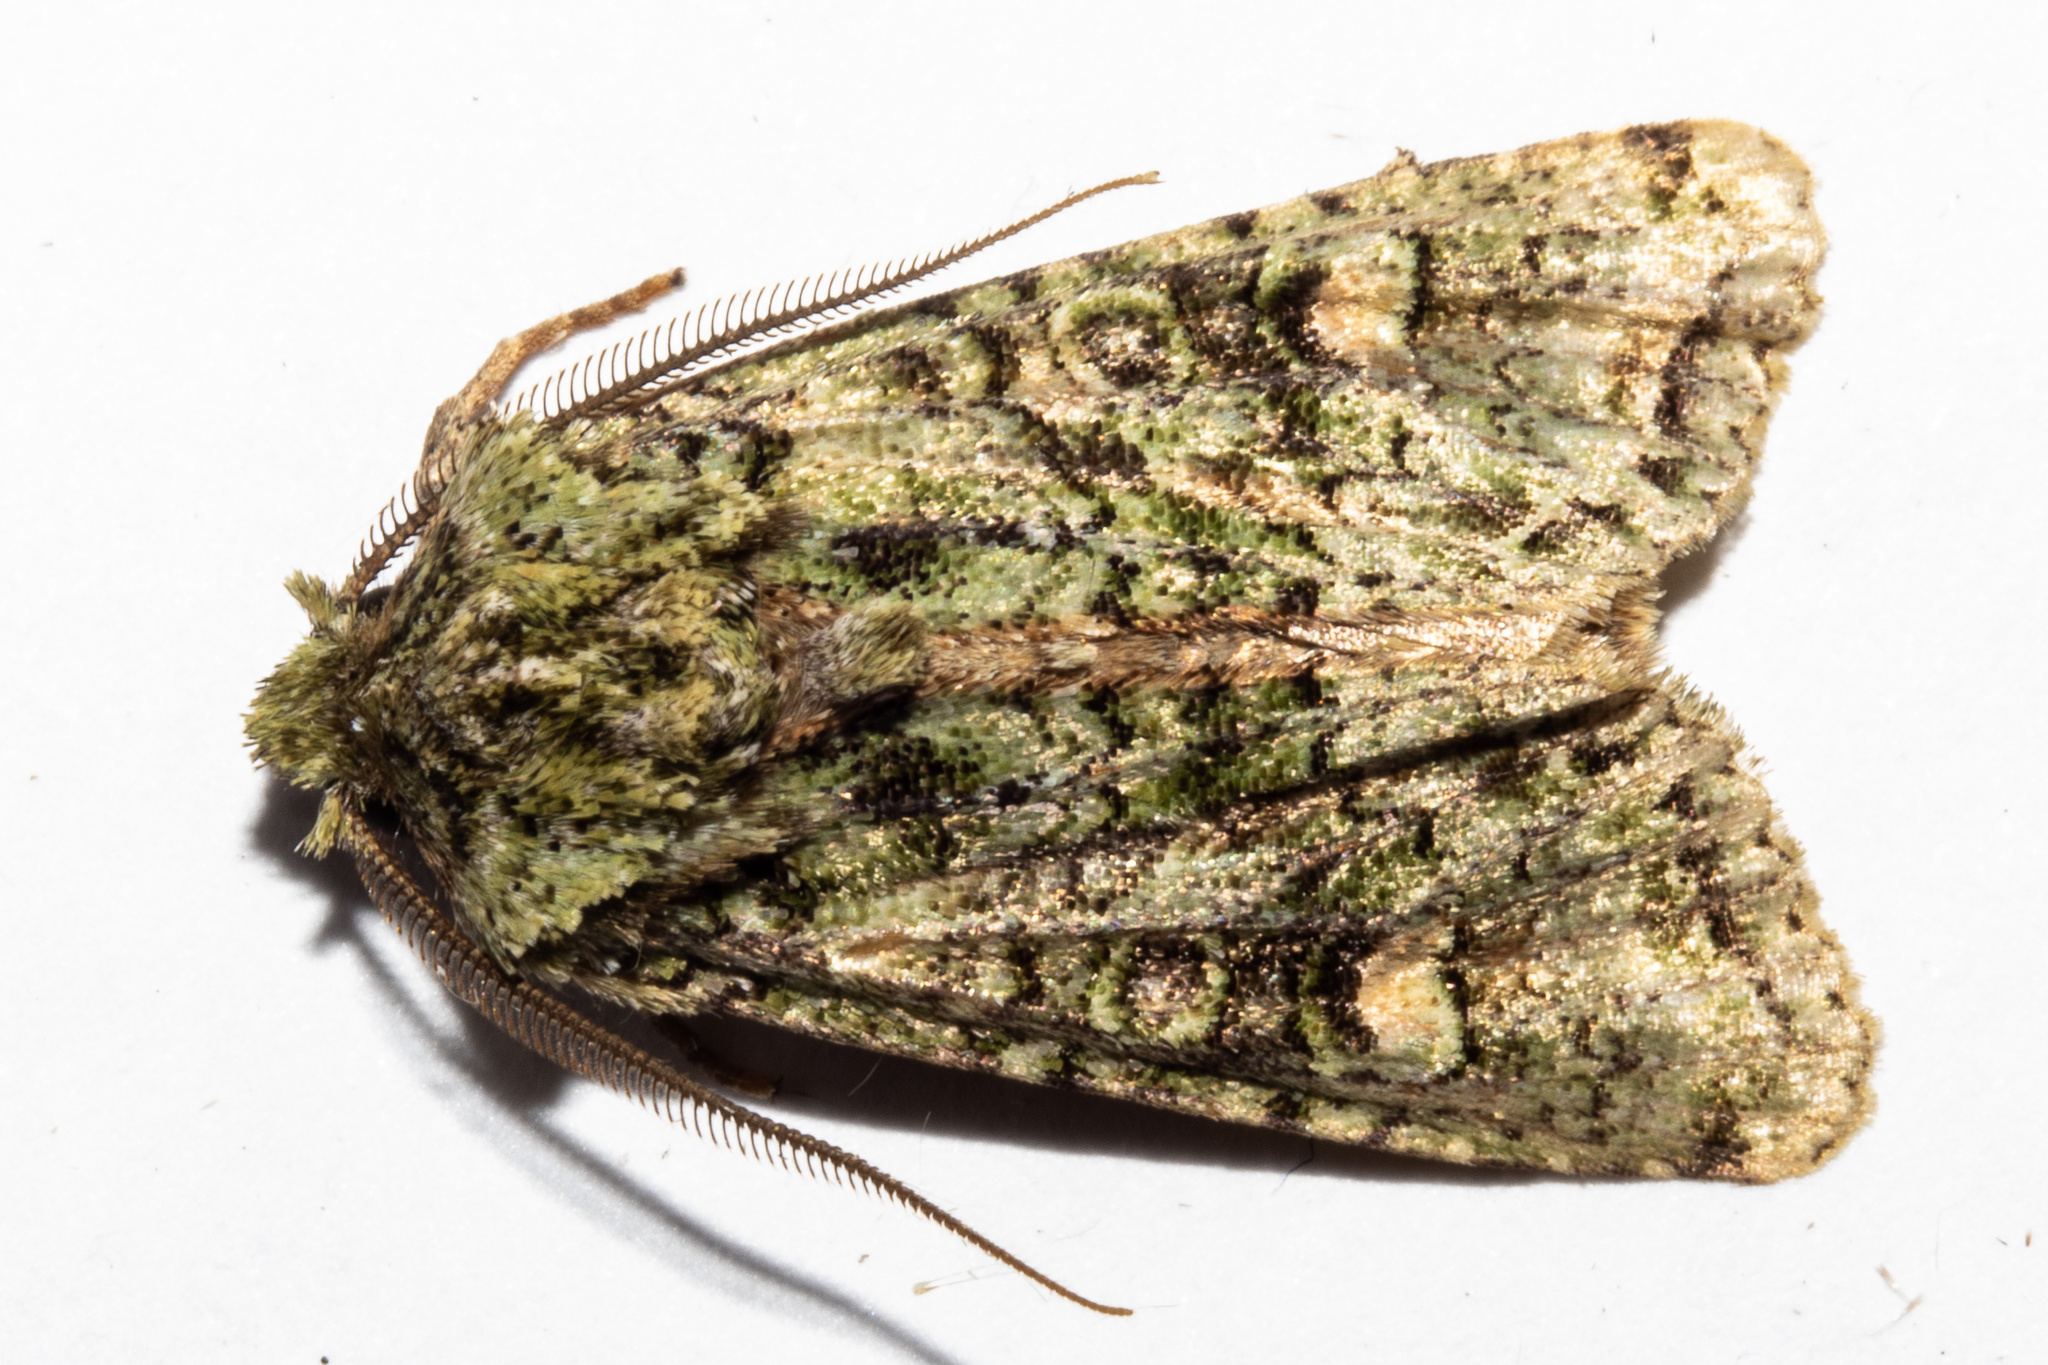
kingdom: Animalia
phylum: Arthropoda
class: Insecta
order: Lepidoptera
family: Noctuidae
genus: Ichneutica
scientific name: Ichneutica
